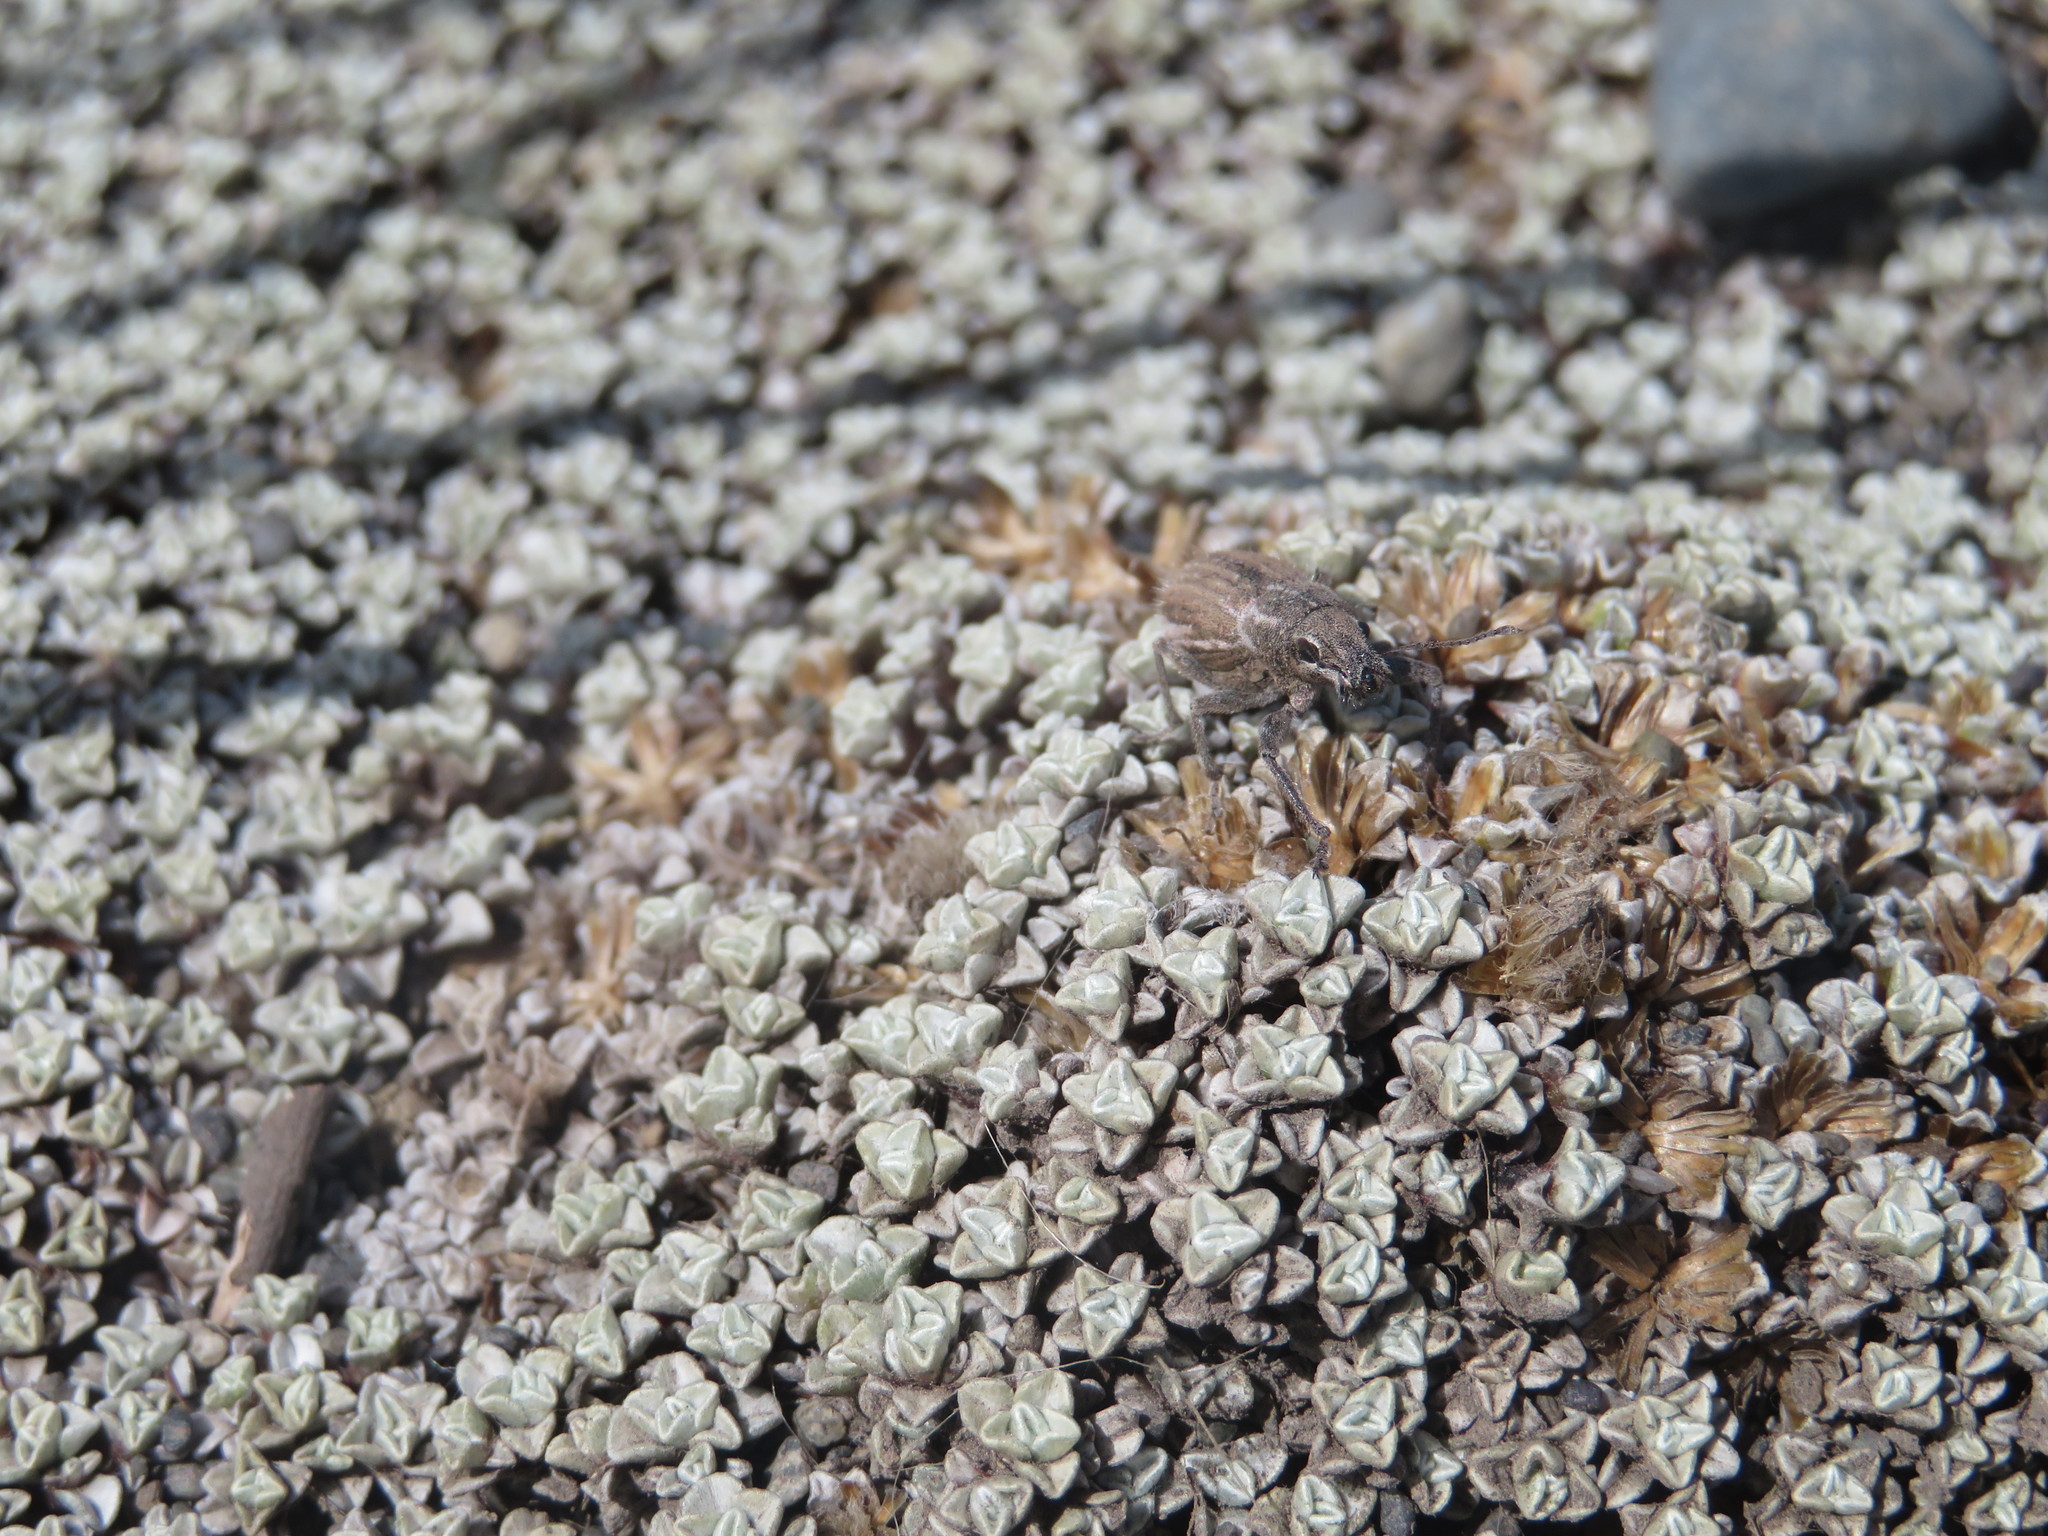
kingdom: Animalia
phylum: Arthropoda
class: Insecta
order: Coleoptera
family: Curculionidae
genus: Naupactus
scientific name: Naupactus leucoloma
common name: Whitefringed beetle
